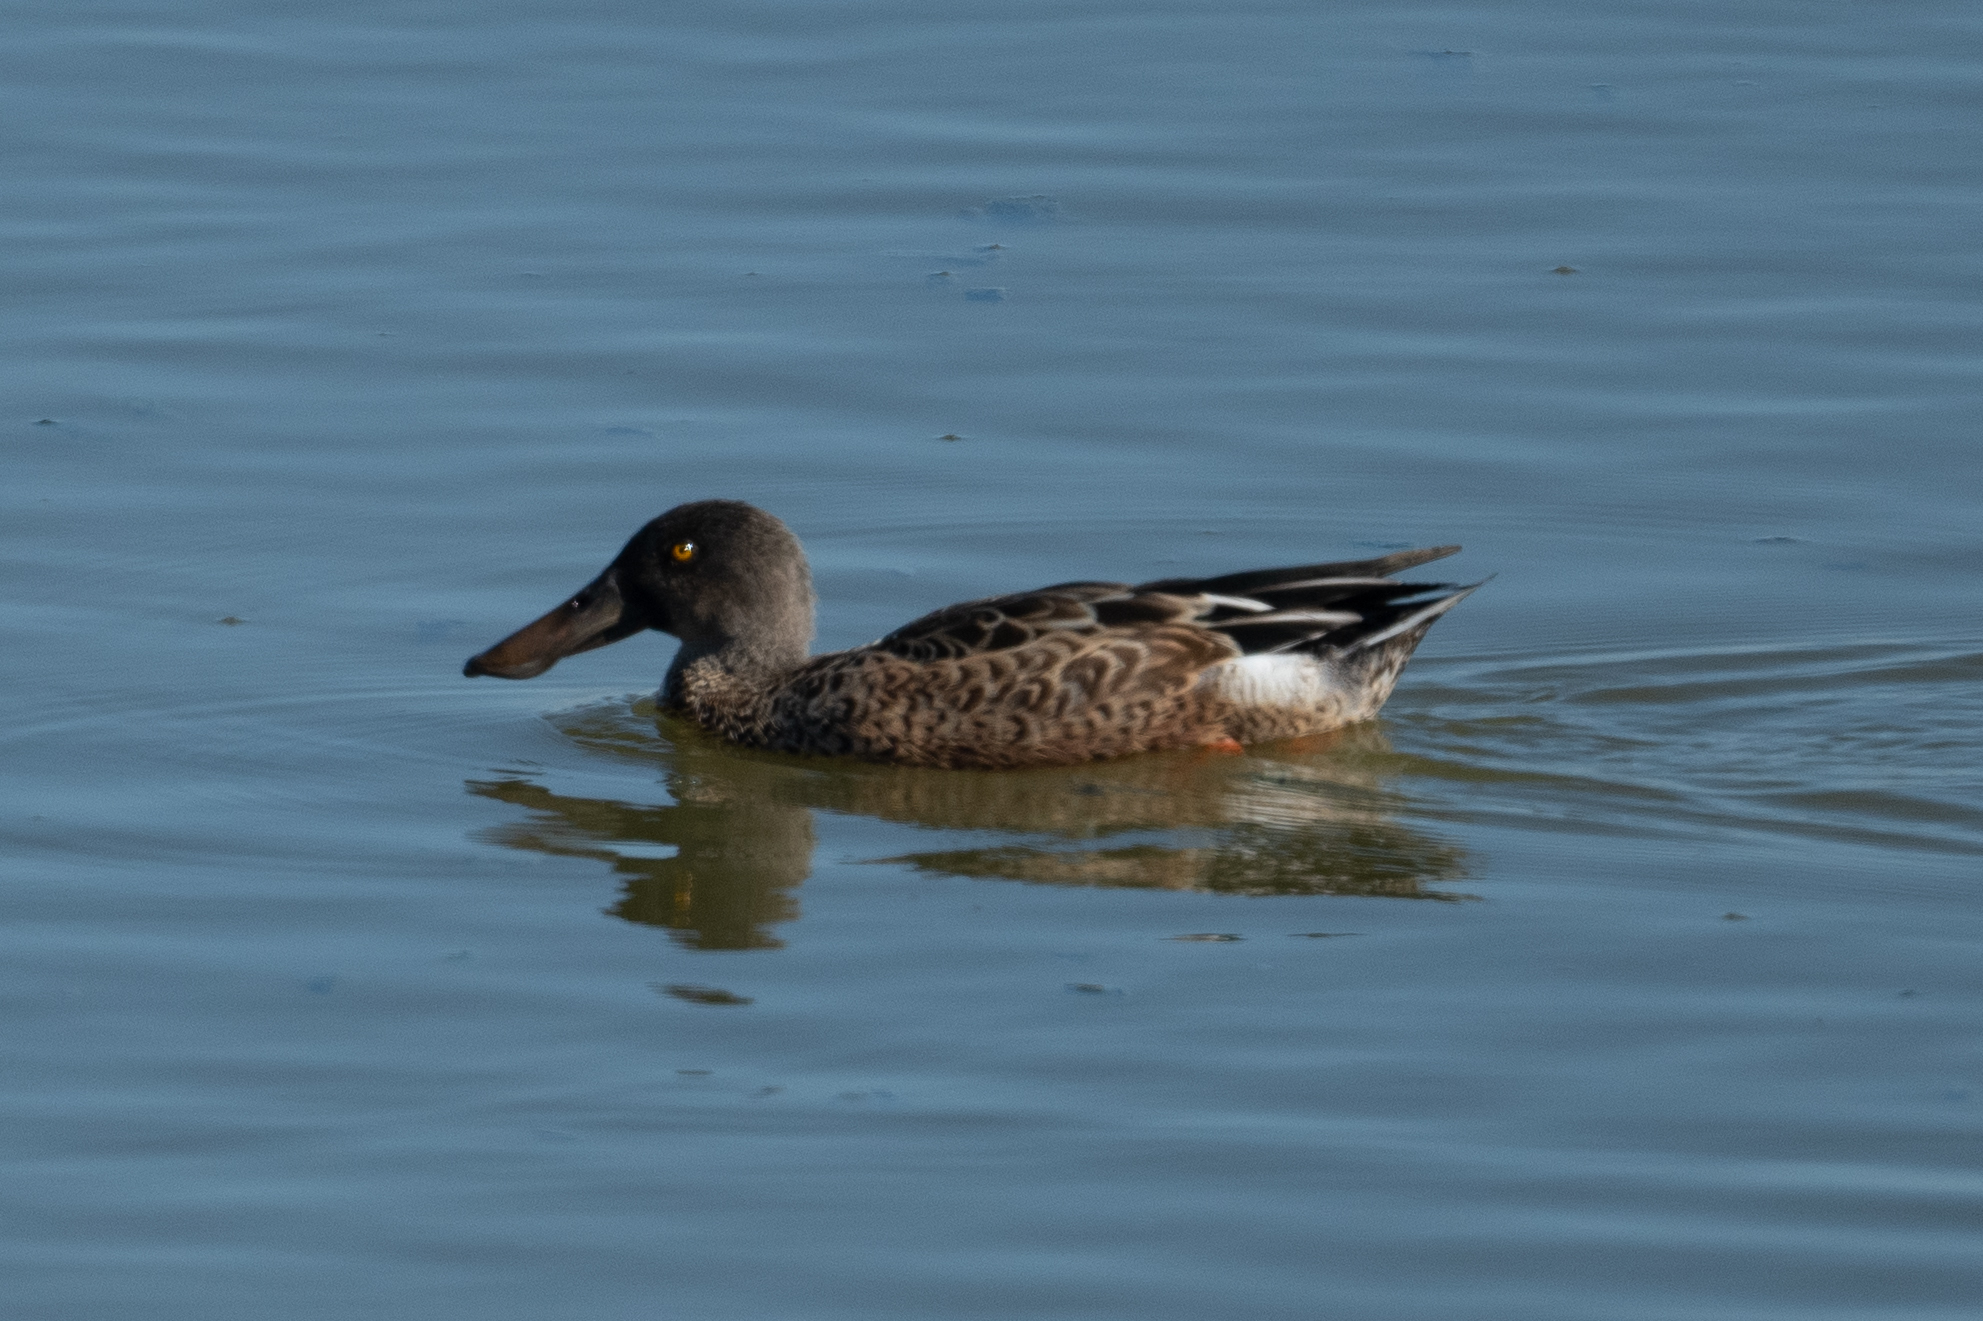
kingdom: Animalia
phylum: Chordata
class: Aves
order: Anseriformes
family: Anatidae
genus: Spatula
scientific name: Spatula clypeata
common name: Northern shoveler
